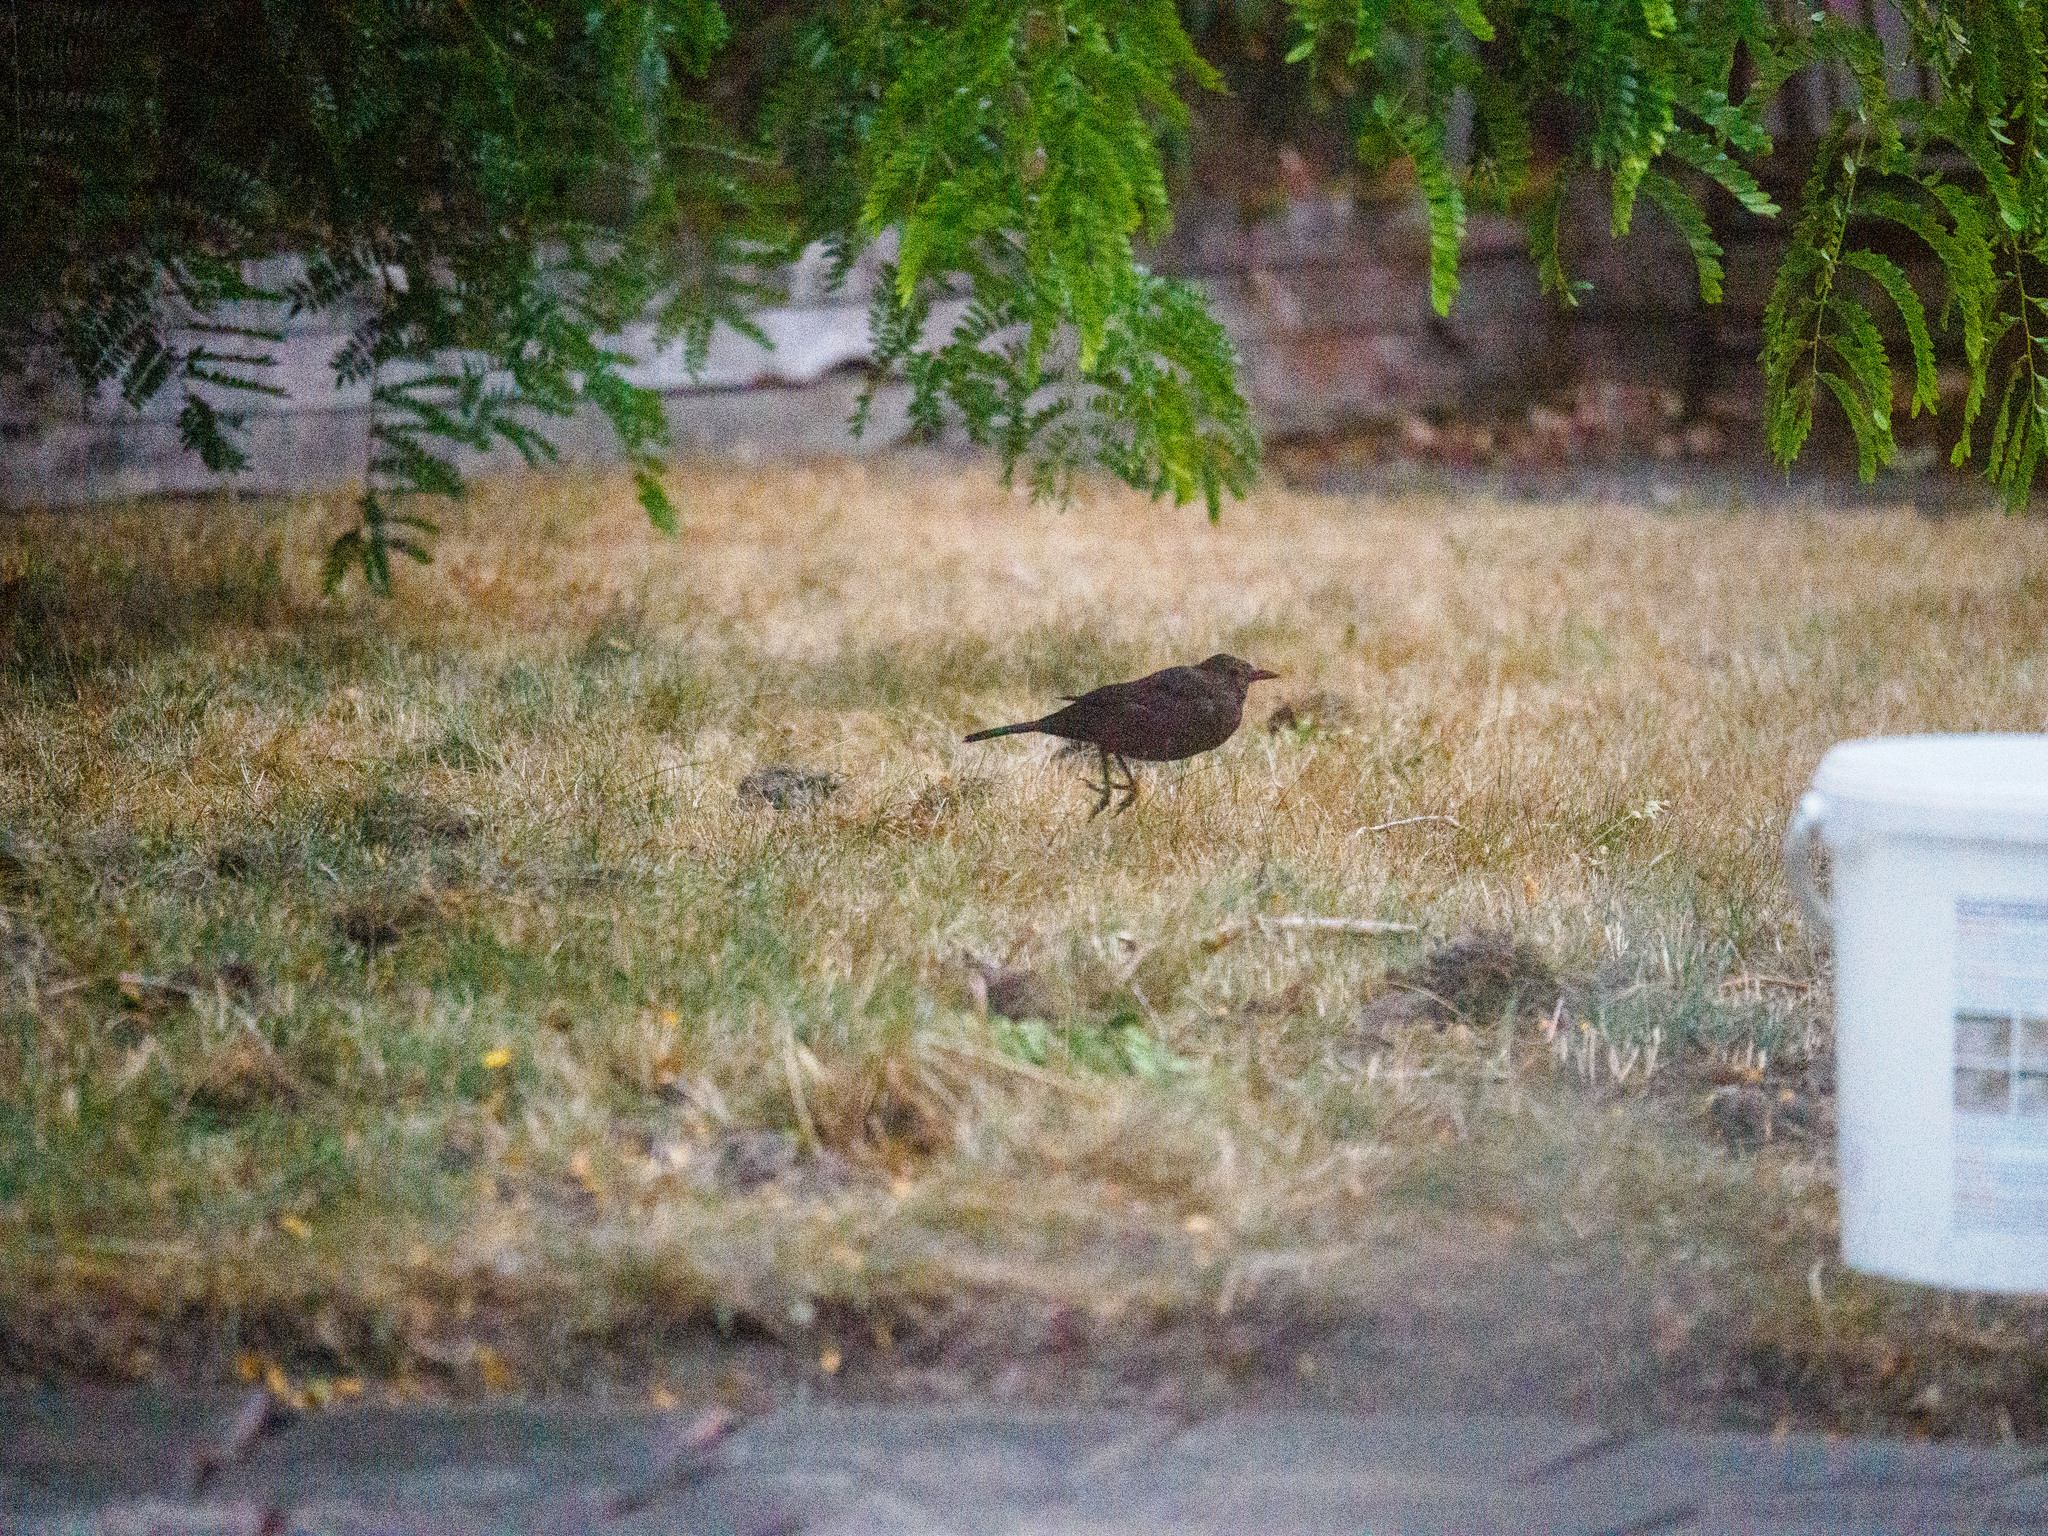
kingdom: Animalia
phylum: Chordata
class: Aves
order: Passeriformes
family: Turdidae
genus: Turdus
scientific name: Turdus merula
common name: Common blackbird
